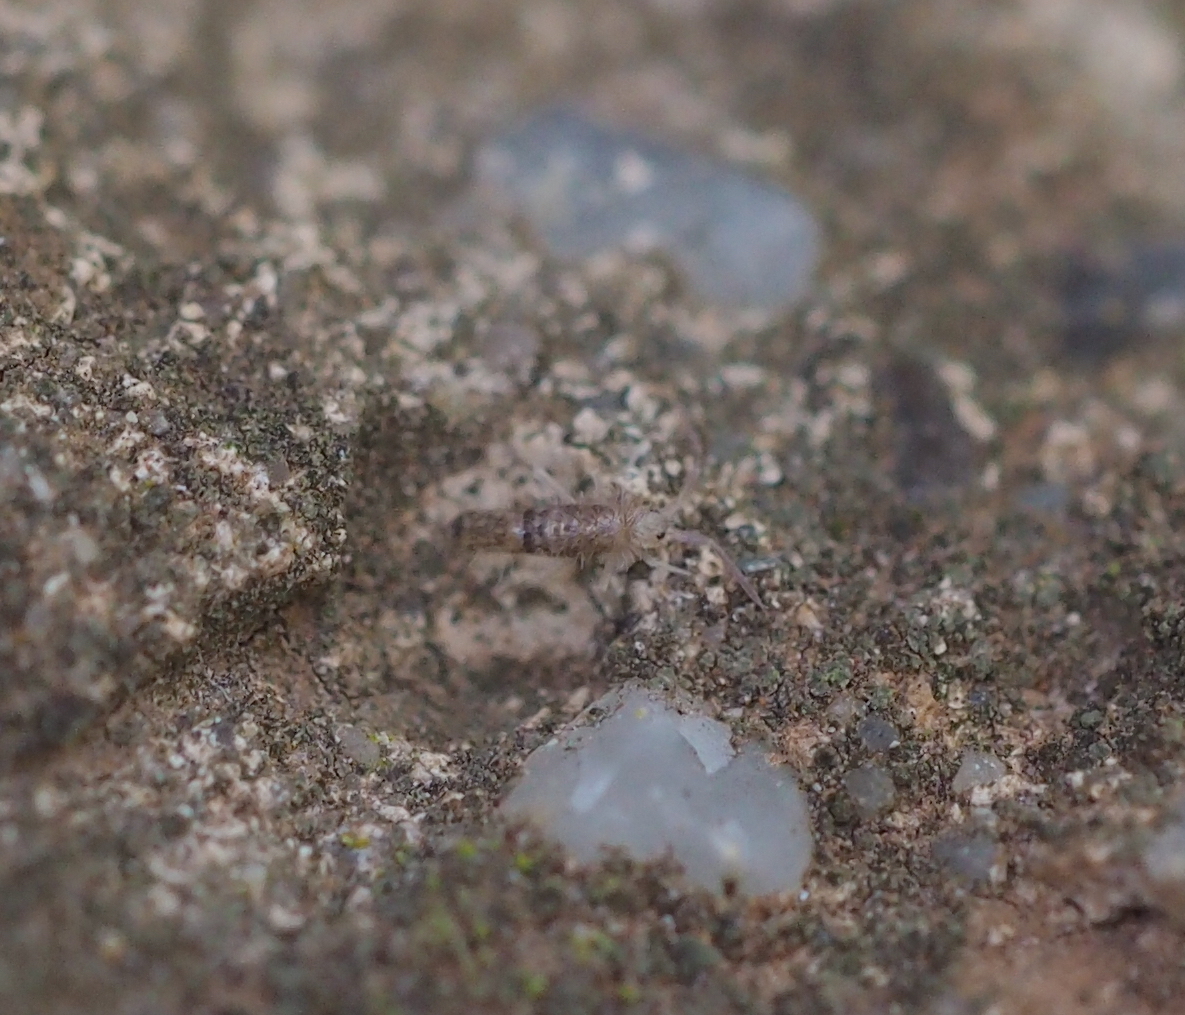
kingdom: Animalia
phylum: Arthropoda
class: Collembola
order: Entomobryomorpha
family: Entomobryidae
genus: Seira
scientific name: Seira musarum
